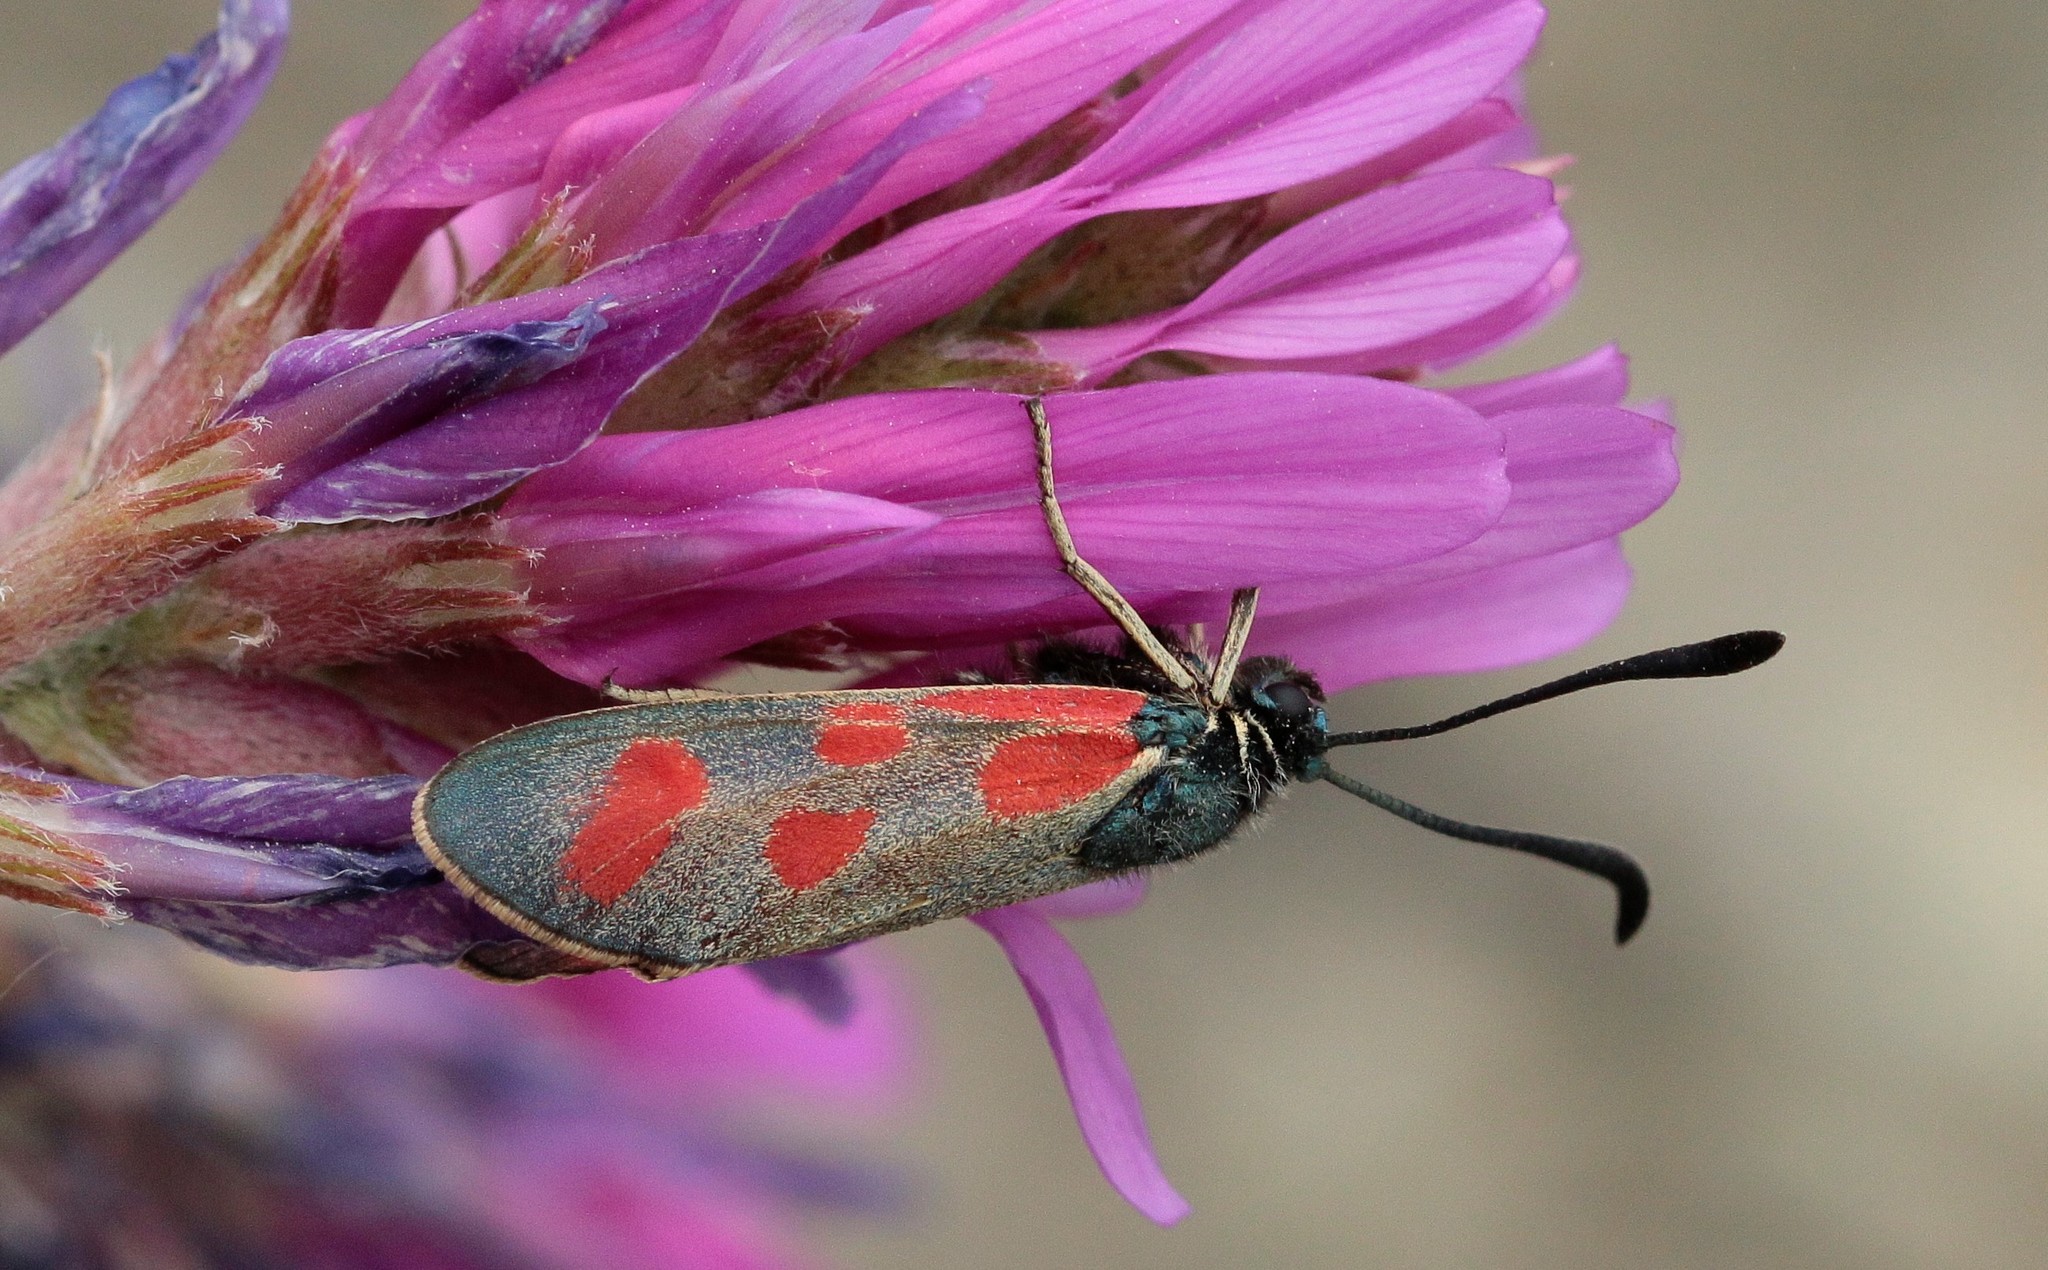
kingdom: Animalia
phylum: Arthropoda
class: Insecta
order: Lepidoptera
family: Zygaenidae
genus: Zygaena
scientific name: Zygaena loti
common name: Slender scotch burnet
